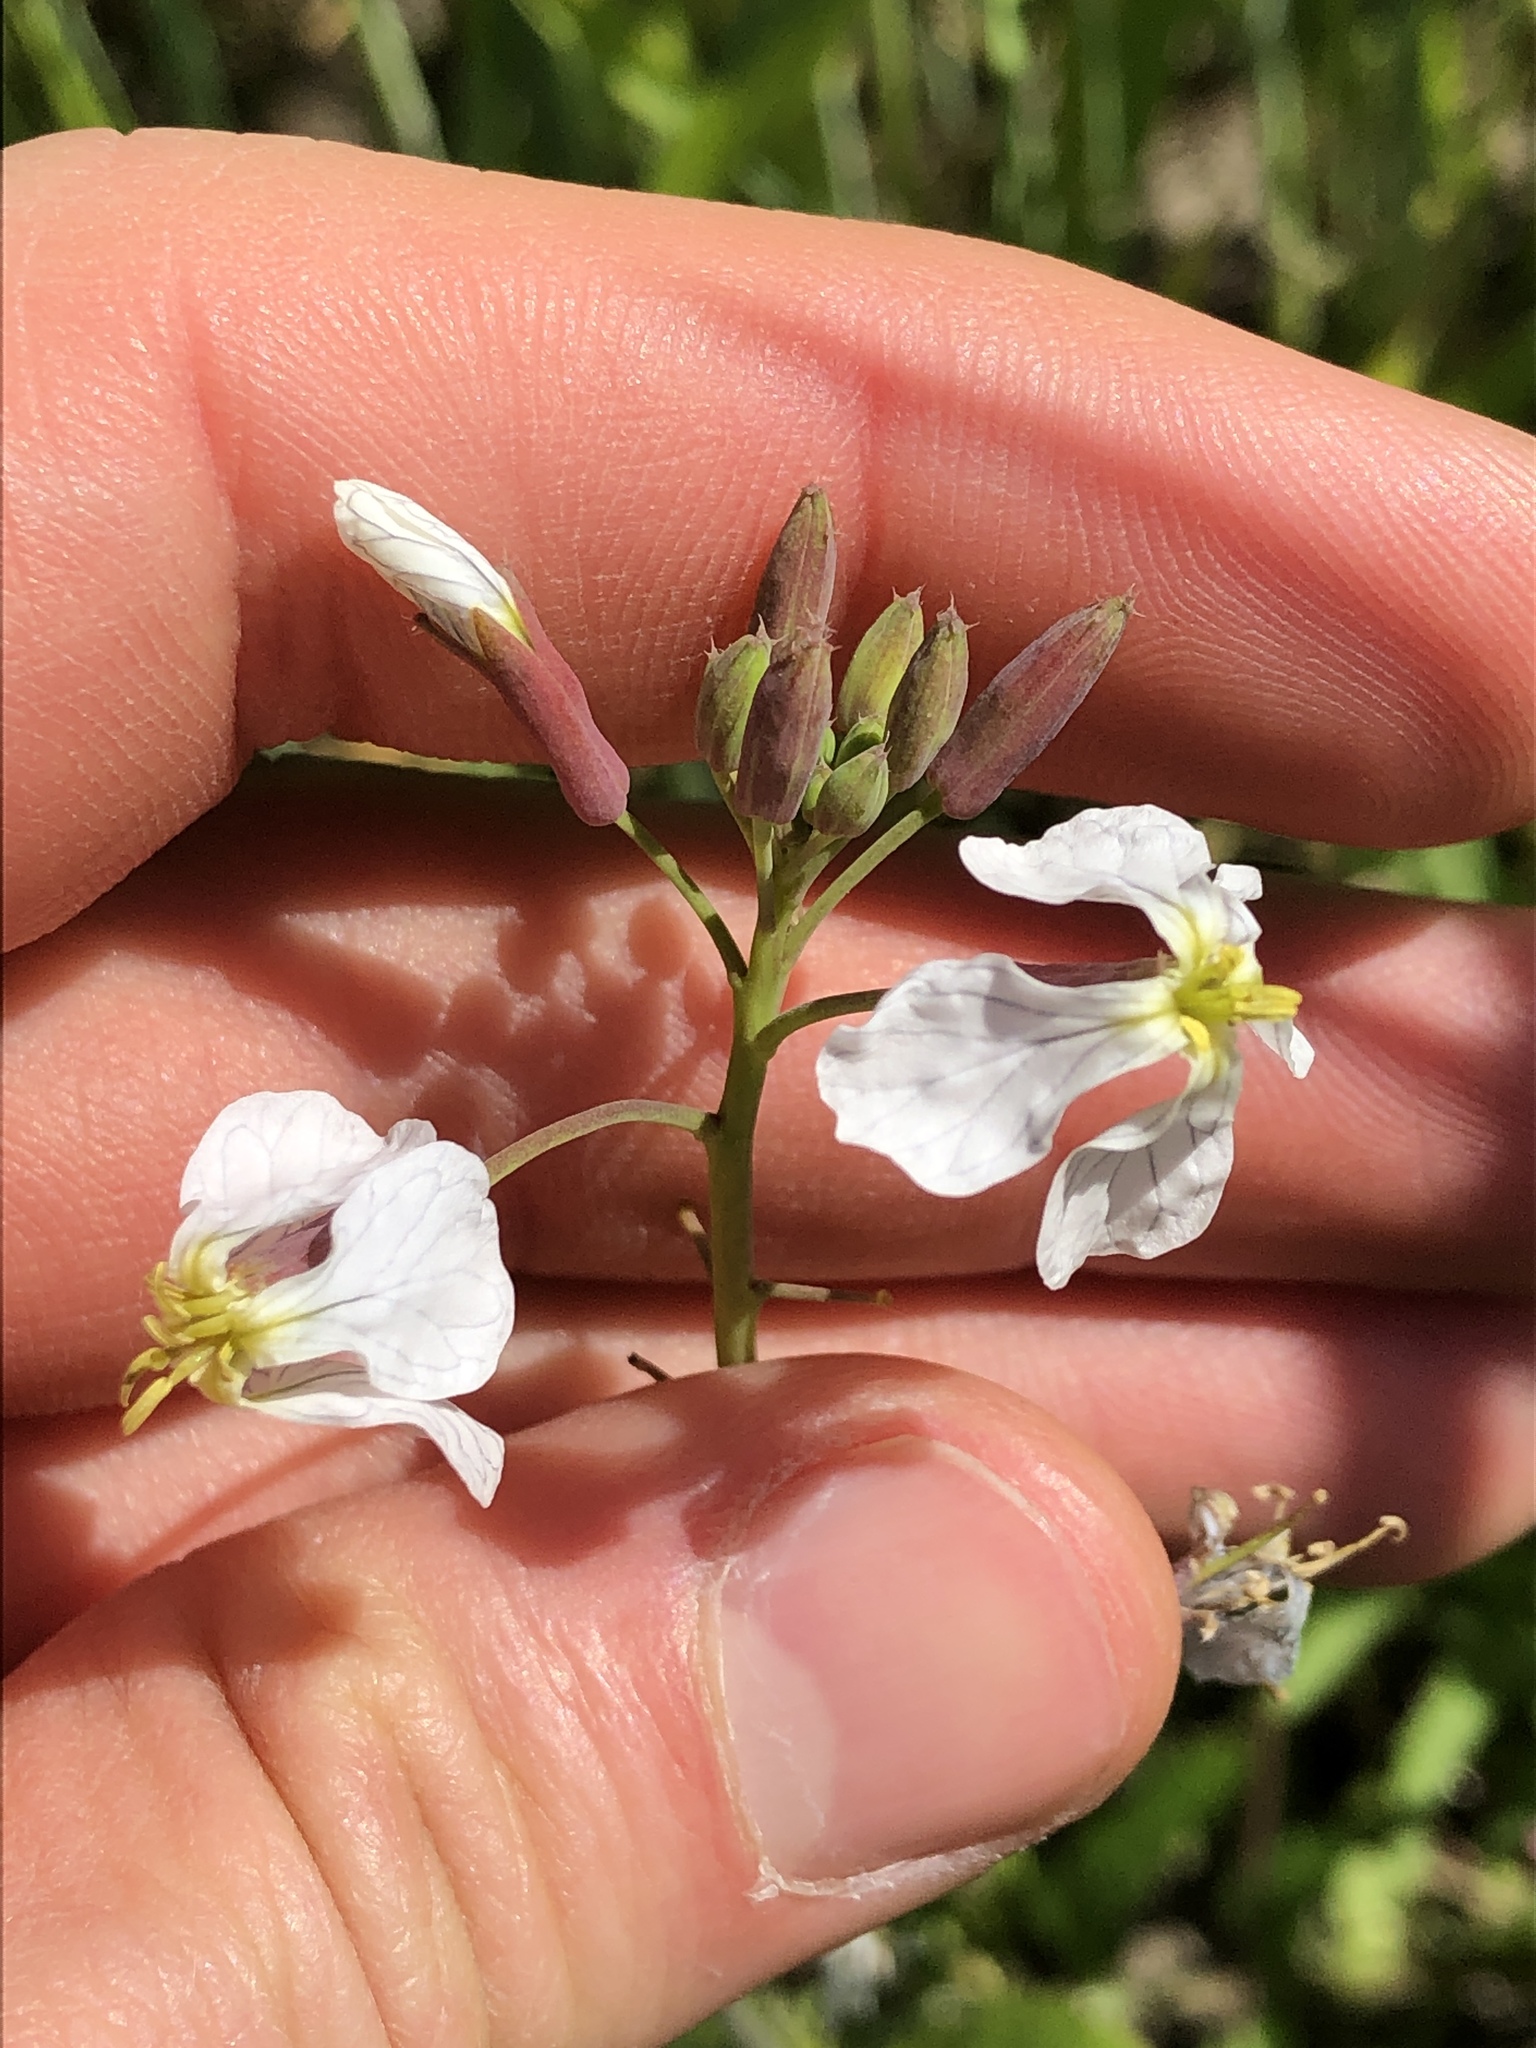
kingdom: Plantae
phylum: Tracheophyta
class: Magnoliopsida
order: Brassicales
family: Brassicaceae
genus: Raphanus
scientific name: Raphanus raphanistrum
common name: Wild radish
